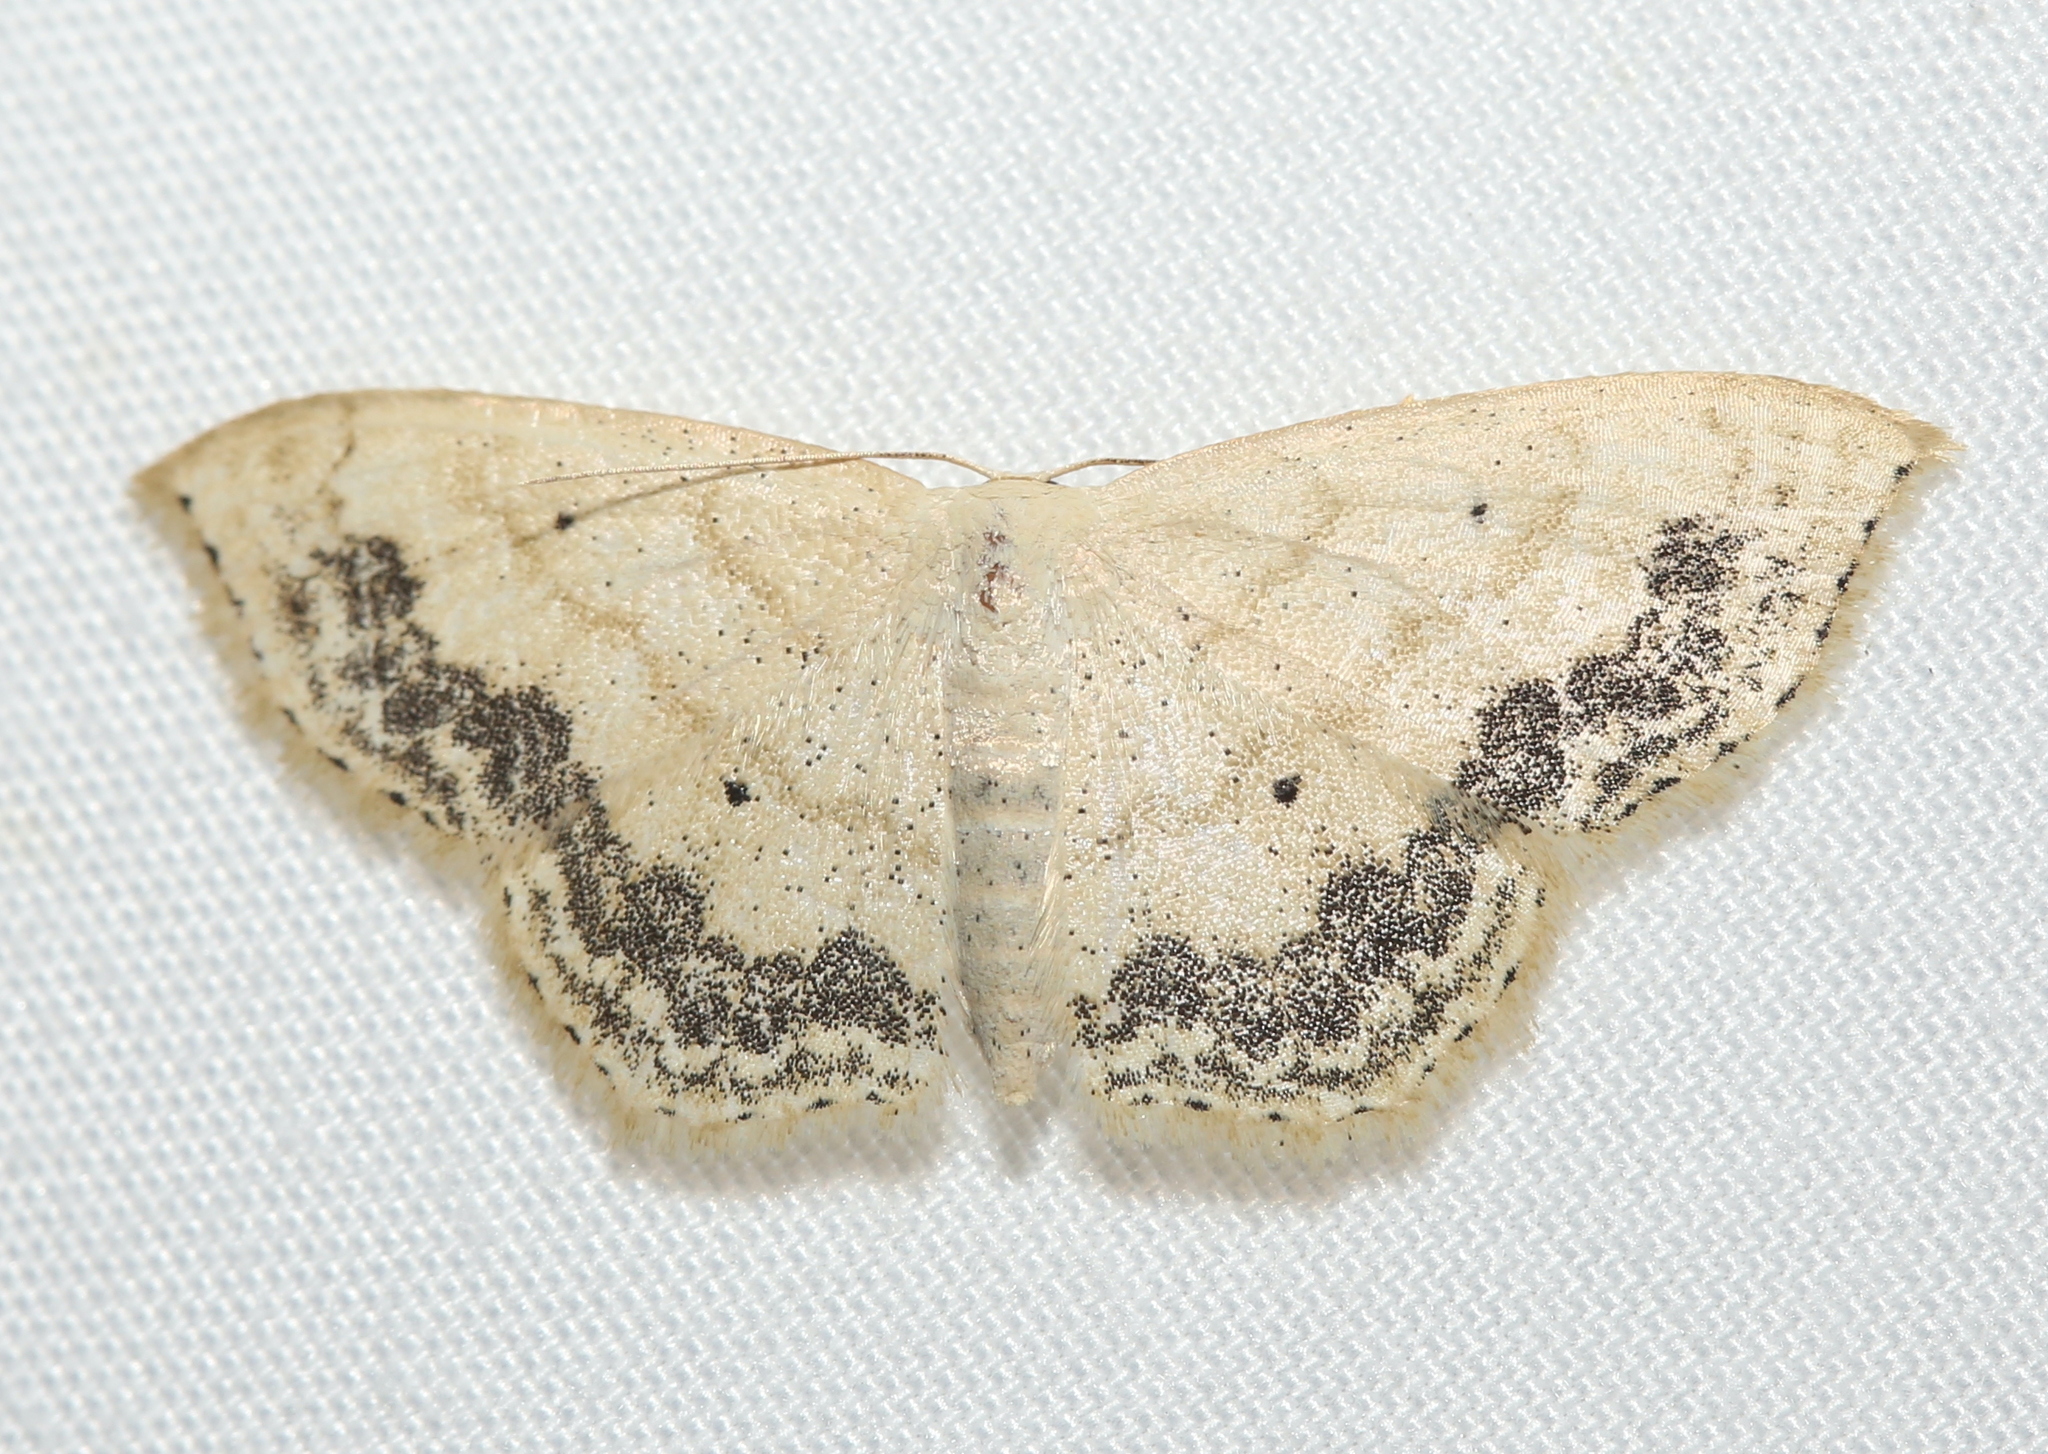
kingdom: Animalia
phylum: Arthropoda
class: Insecta
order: Lepidoptera
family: Geometridae
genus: Scopula
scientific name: Scopula limboundata
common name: Large lace border
